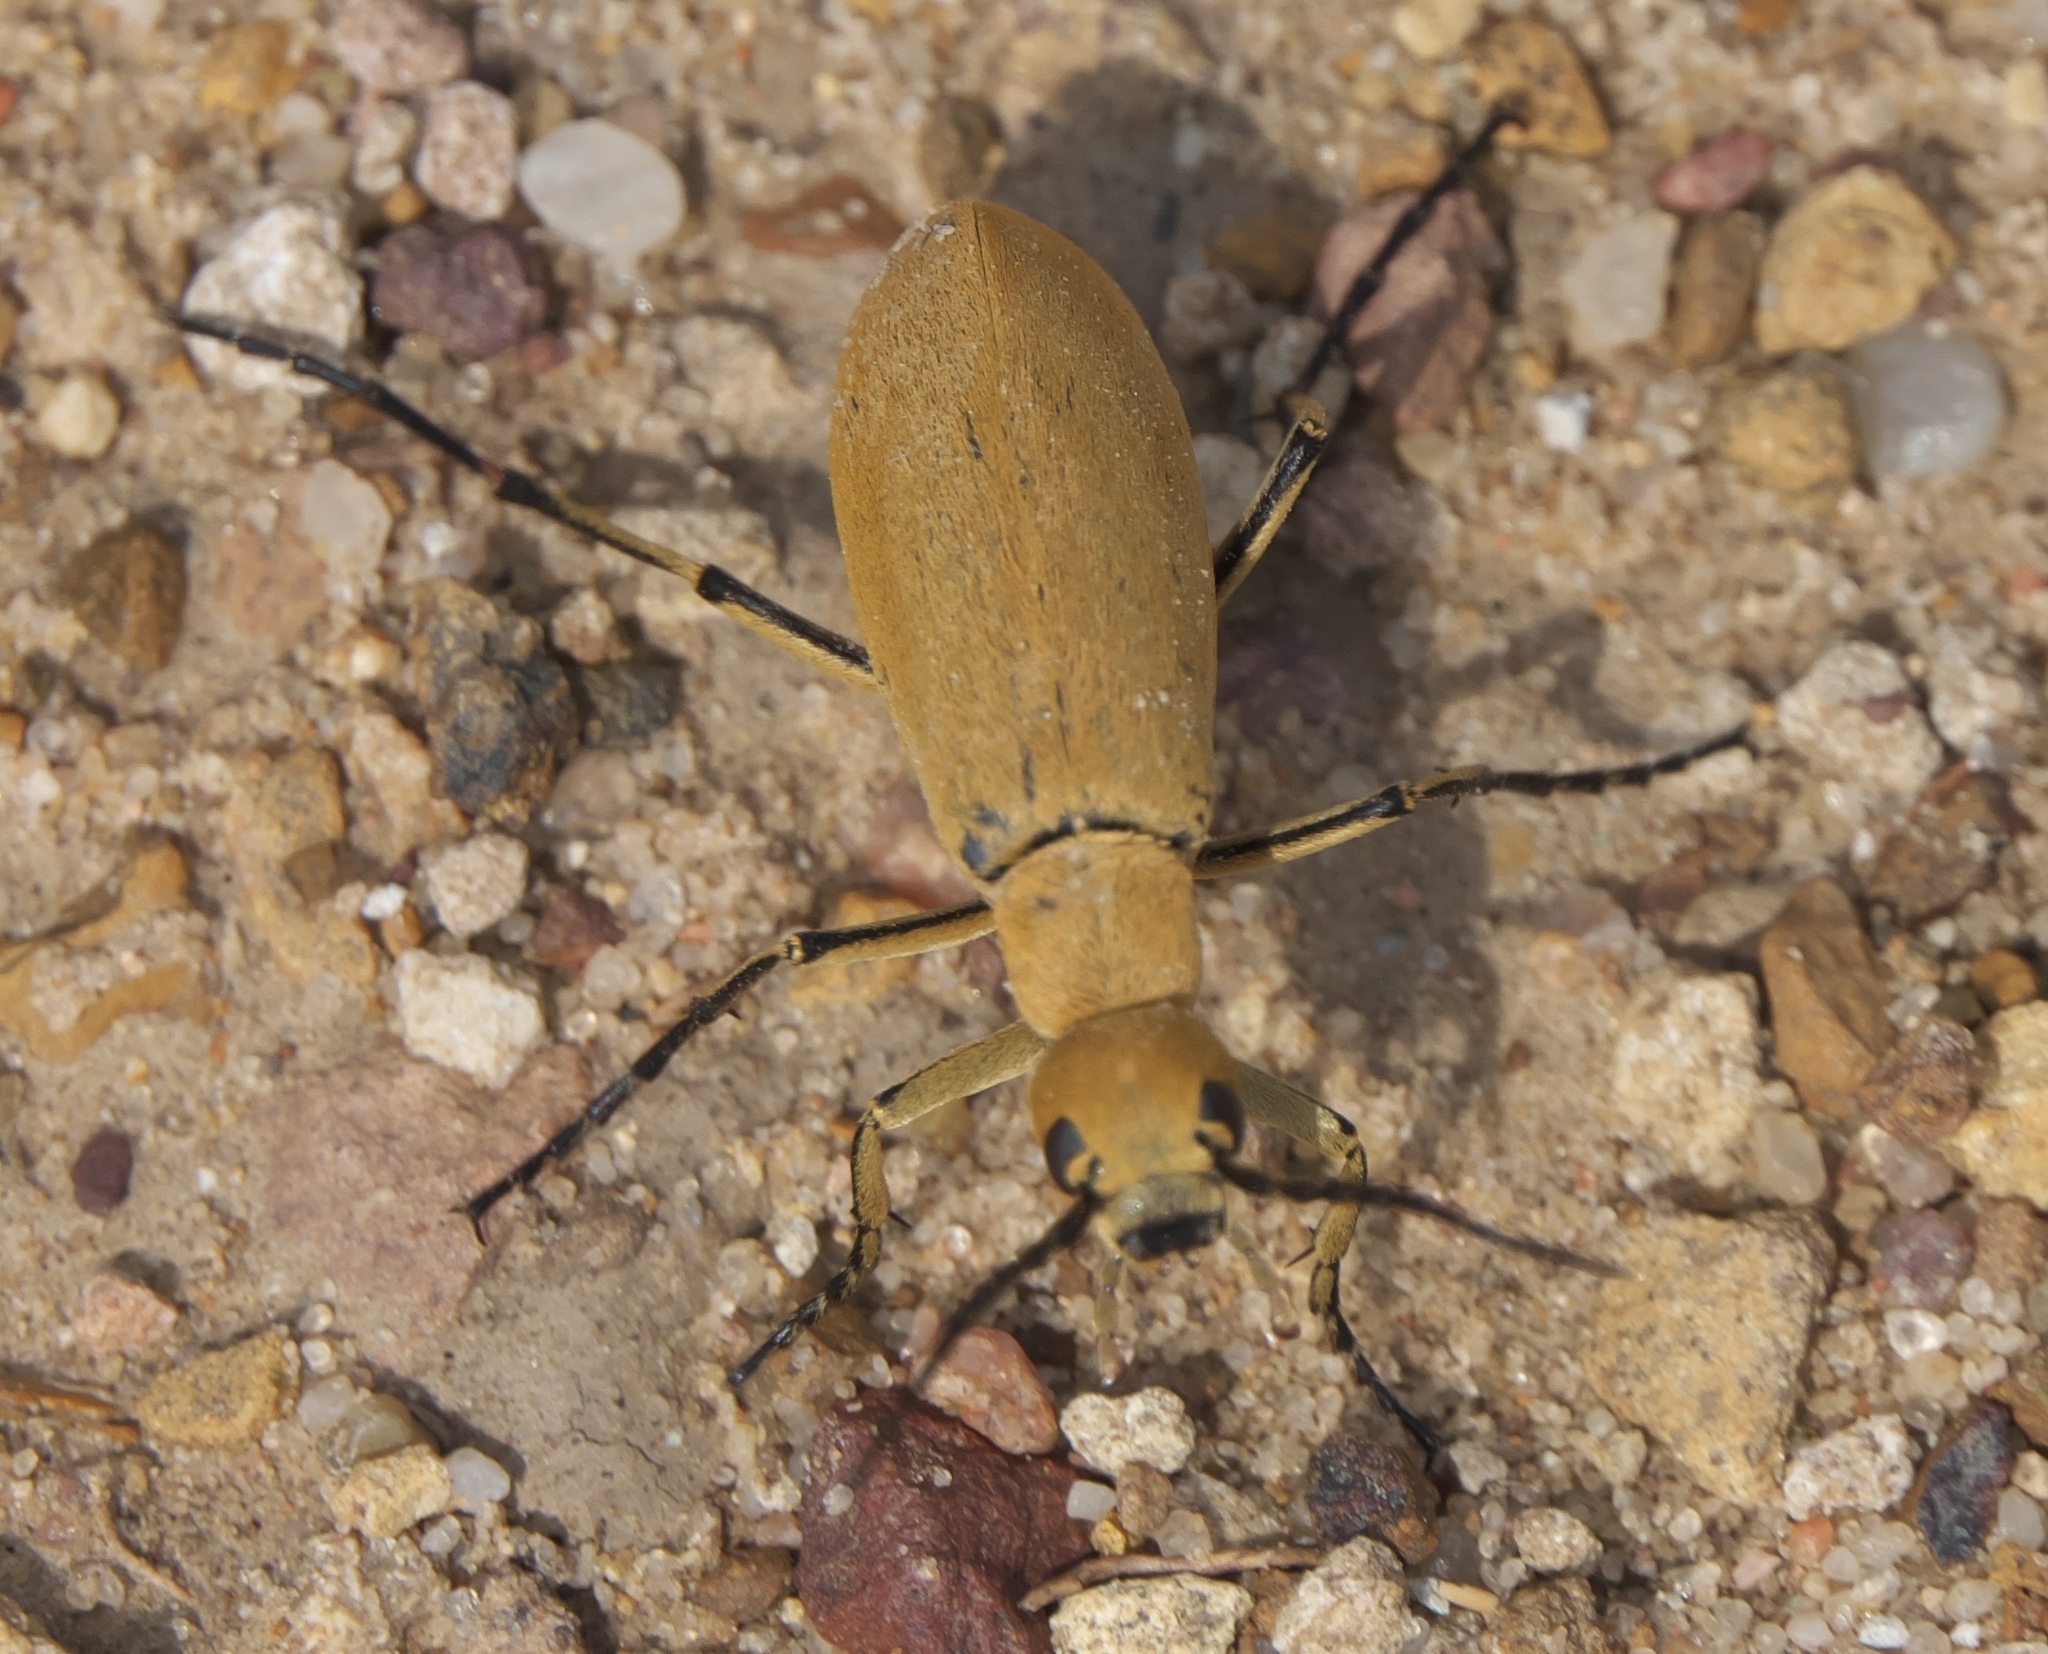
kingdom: Animalia
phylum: Arthropoda
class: Insecta
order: Coleoptera
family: Meloidae
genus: Epicauta
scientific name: Epicauta immaculata
